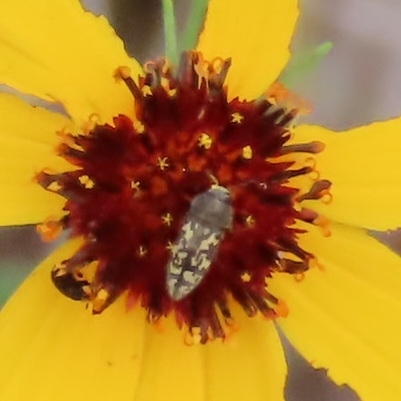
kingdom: Animalia
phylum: Arthropoda
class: Insecta
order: Coleoptera
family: Buprestidae
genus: Acmaeodera
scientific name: Acmaeodera neglecta
